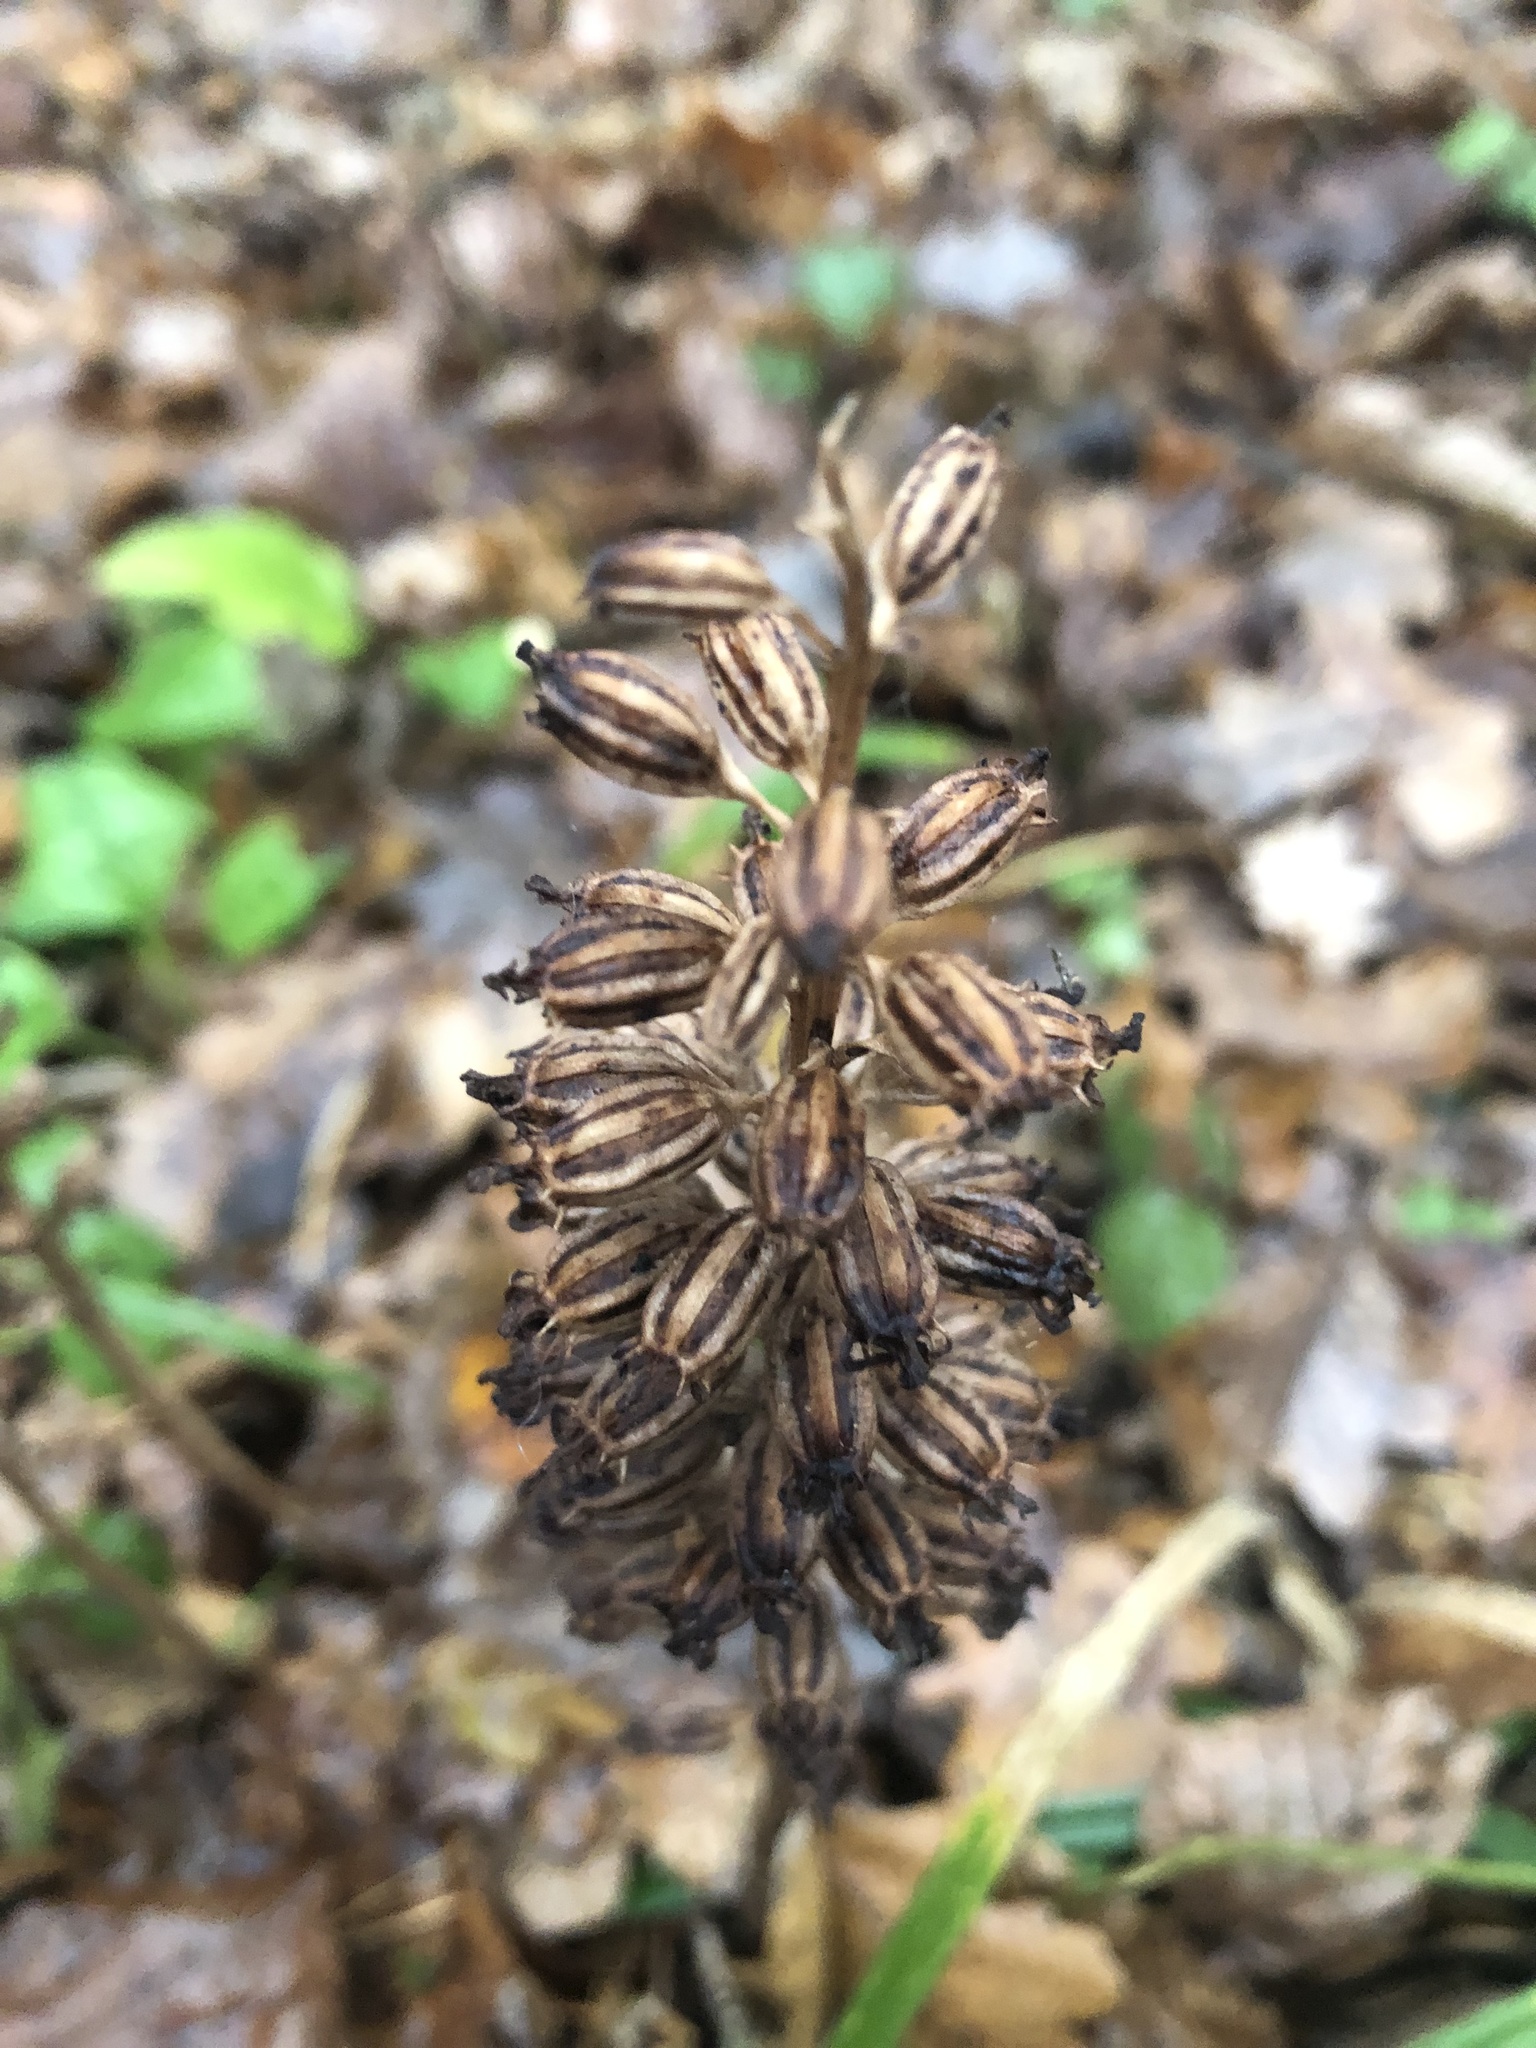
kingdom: Plantae
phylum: Tracheophyta
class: Liliopsida
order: Asparagales
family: Orchidaceae
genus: Neottia
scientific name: Neottia nidus-avis
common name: Bird's-nest orchid
